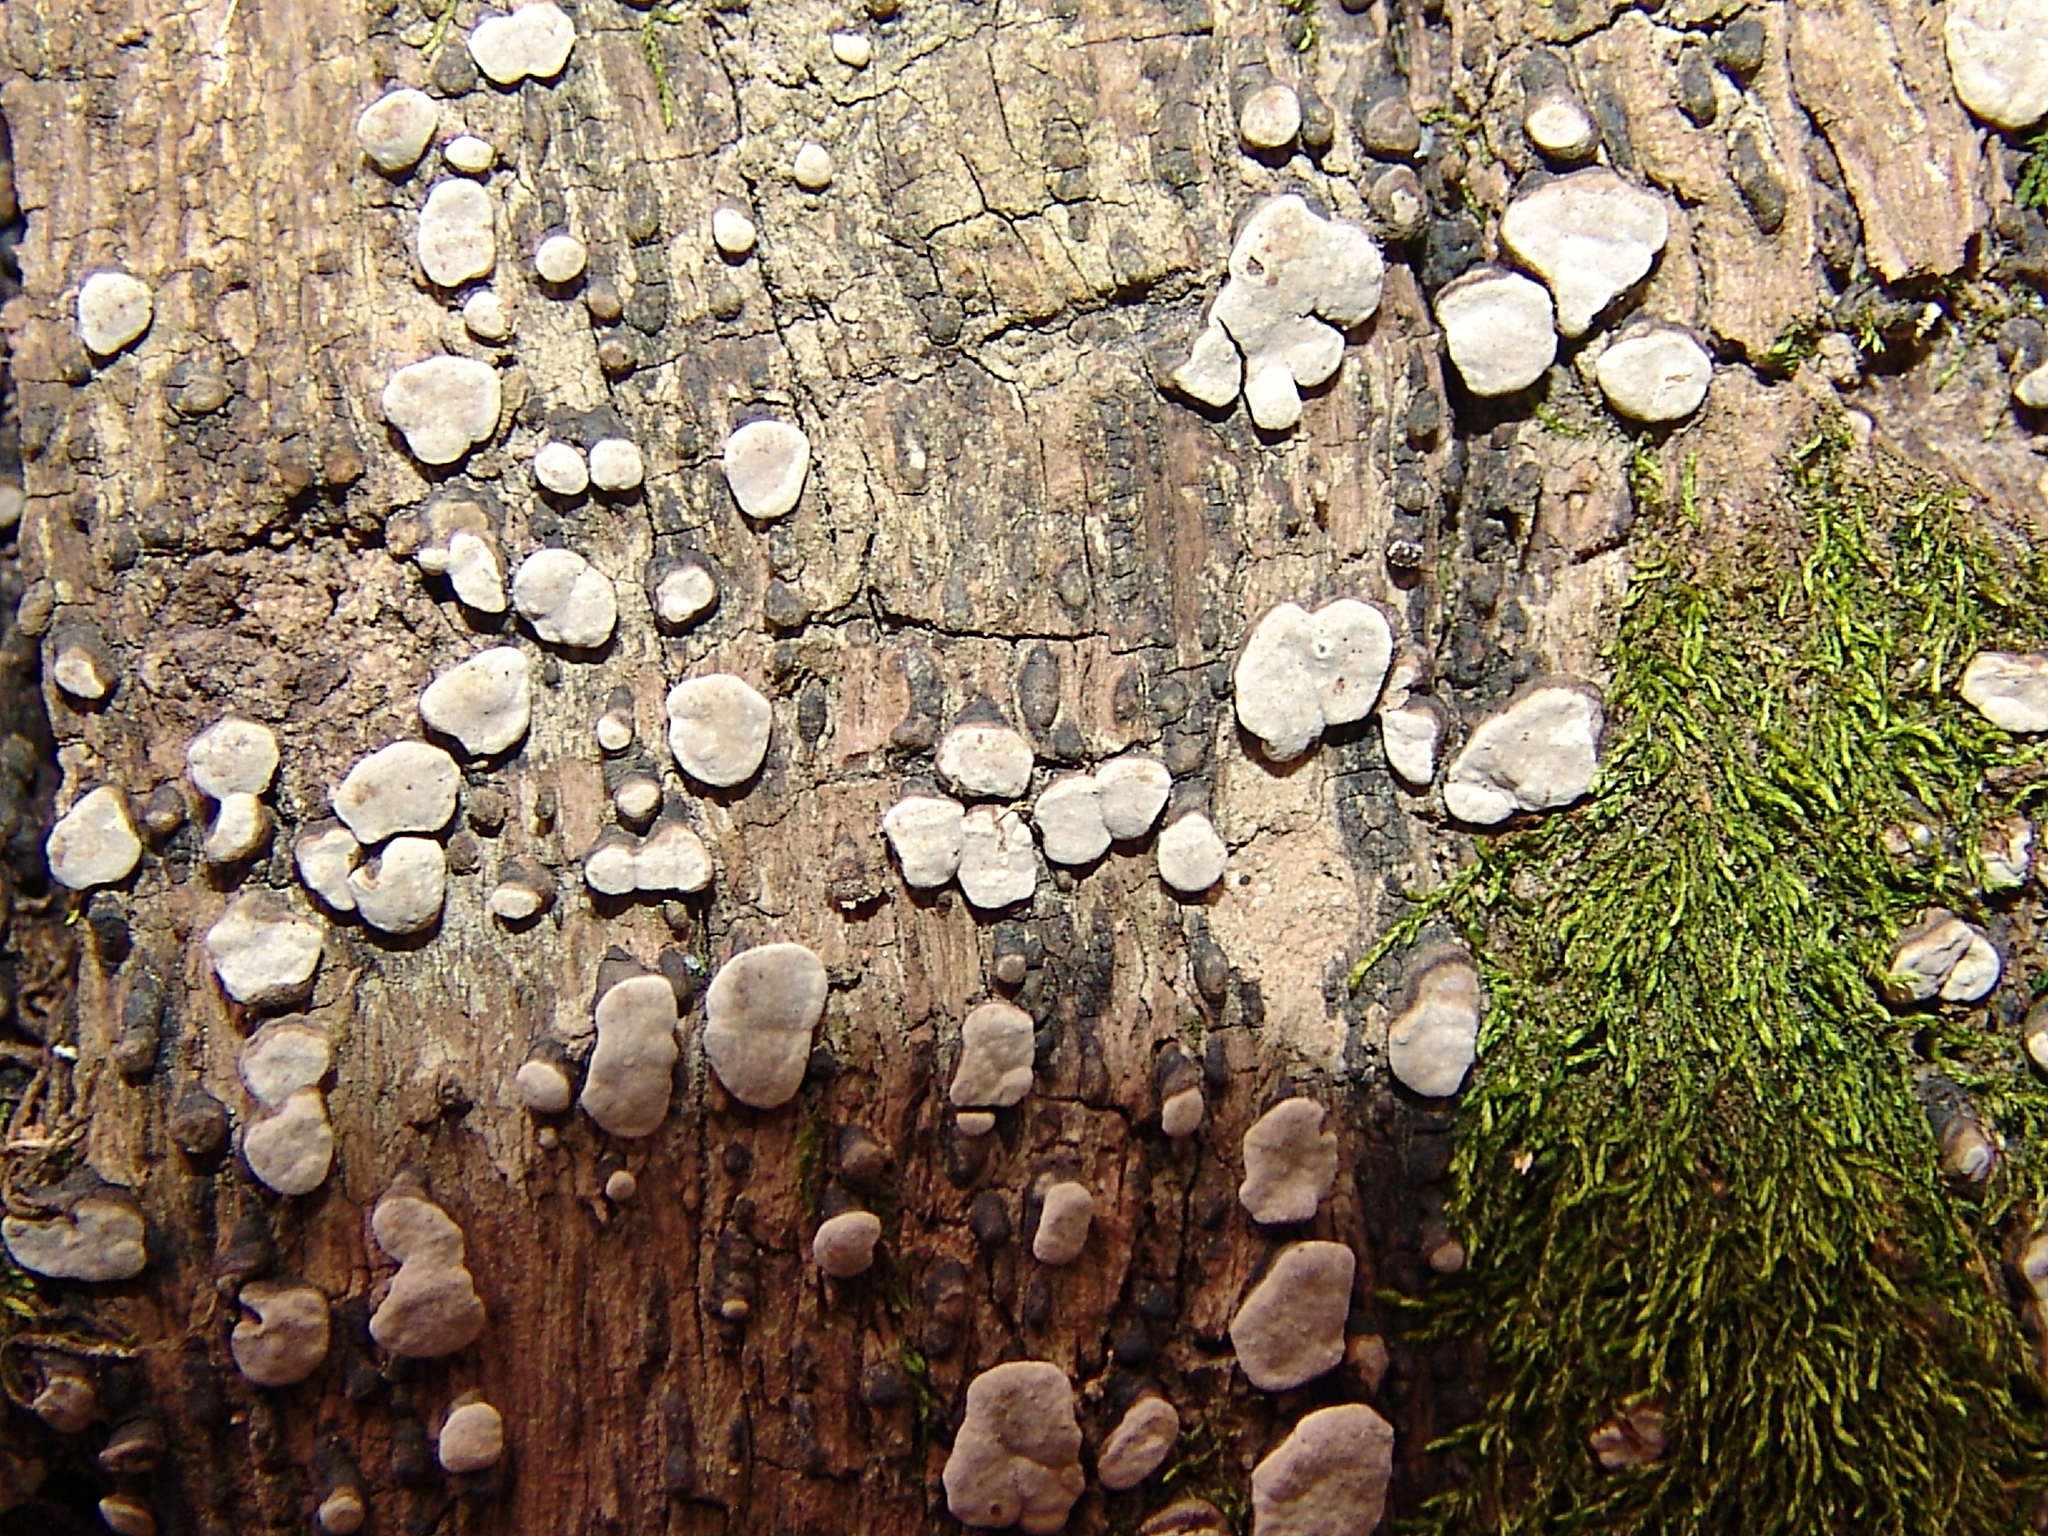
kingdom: Fungi
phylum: Basidiomycota
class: Agaricomycetes
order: Russulales
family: Stereaceae
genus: Xylobolus
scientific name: Xylobolus frustulatus
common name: Ceramic parchment
